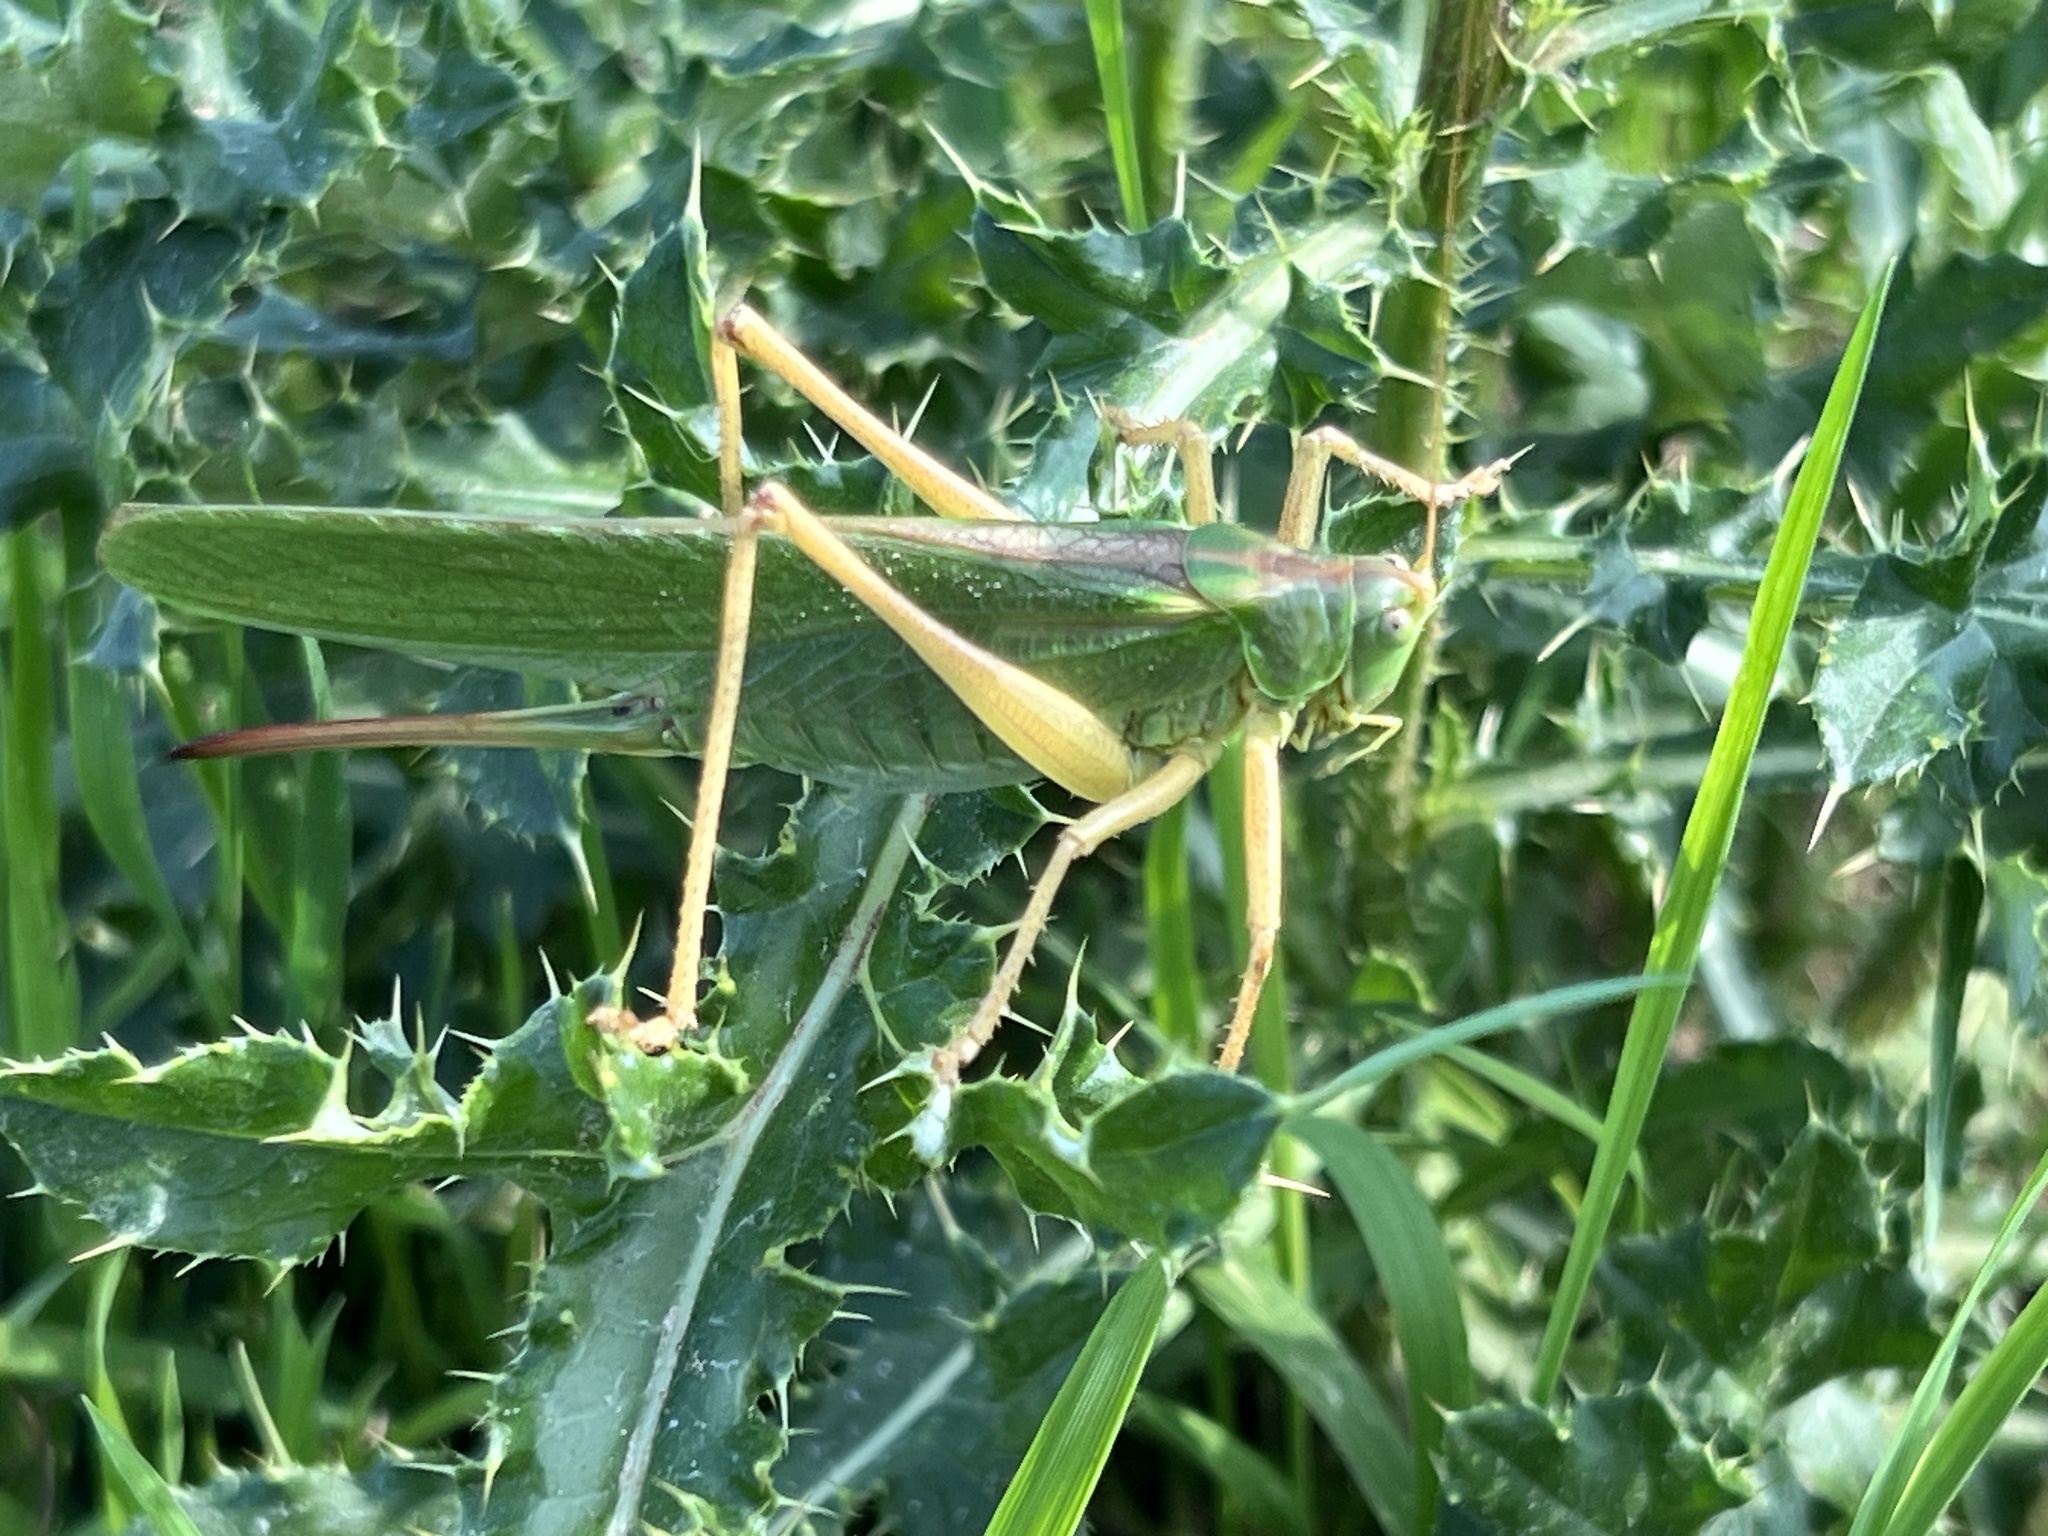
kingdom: Animalia
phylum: Arthropoda
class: Insecta
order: Orthoptera
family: Tettigoniidae
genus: Tettigonia
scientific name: Tettigonia viridissima
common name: Great green bush-cricket
